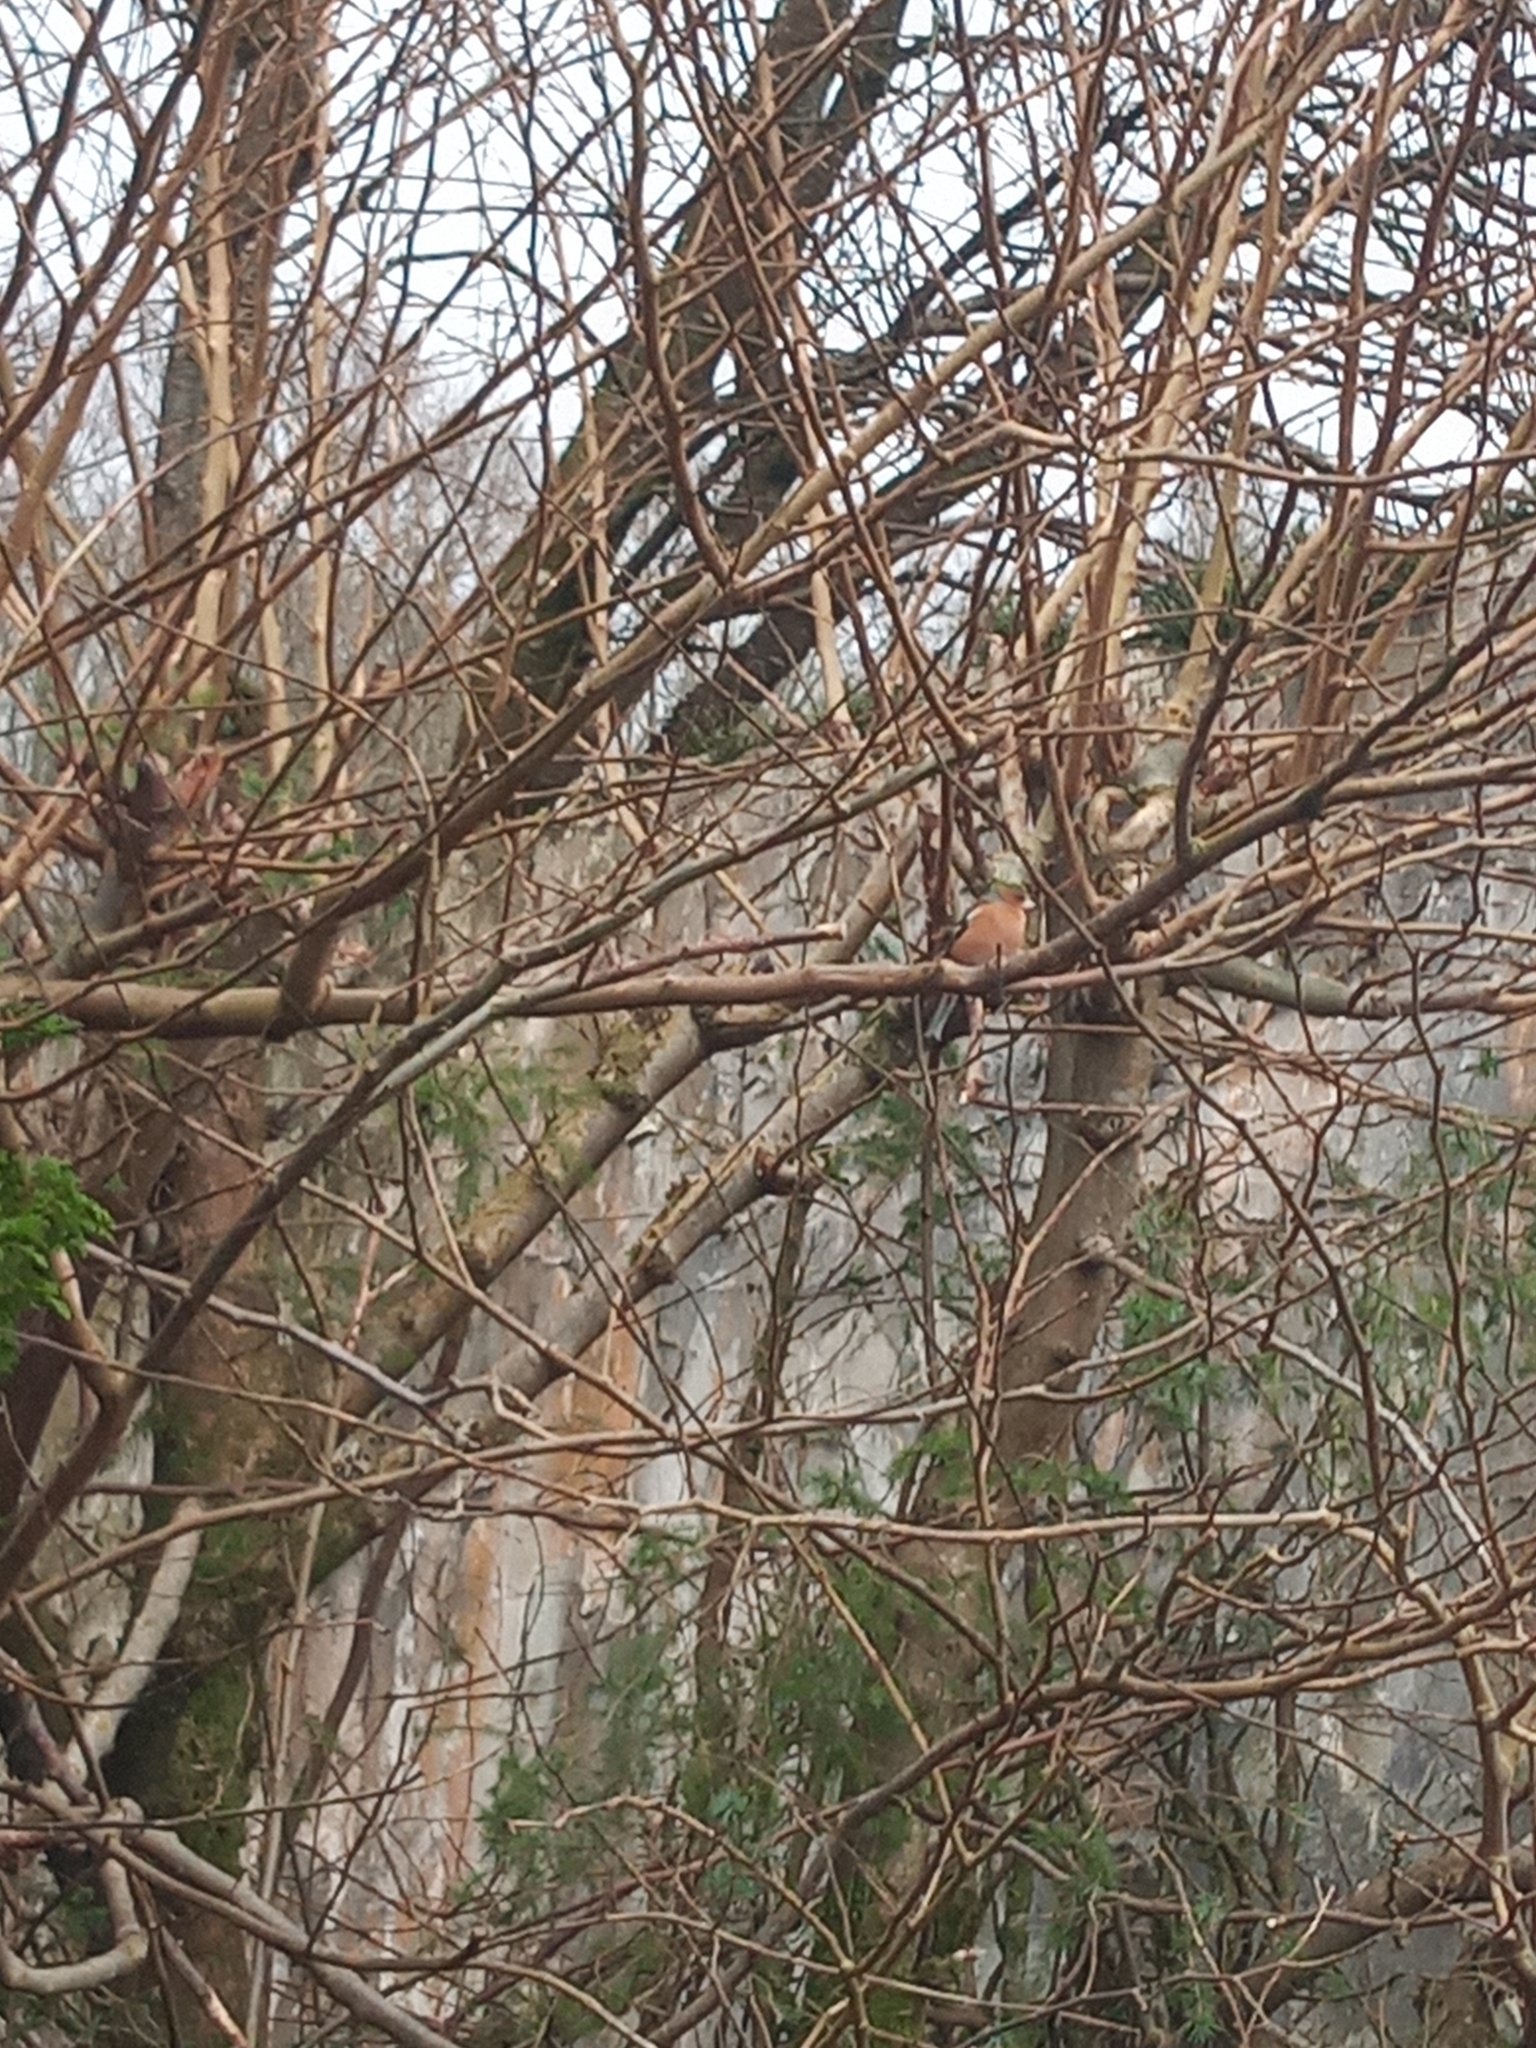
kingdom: Animalia
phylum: Chordata
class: Aves
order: Passeriformes
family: Fringillidae
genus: Fringilla
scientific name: Fringilla coelebs
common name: Common chaffinch
